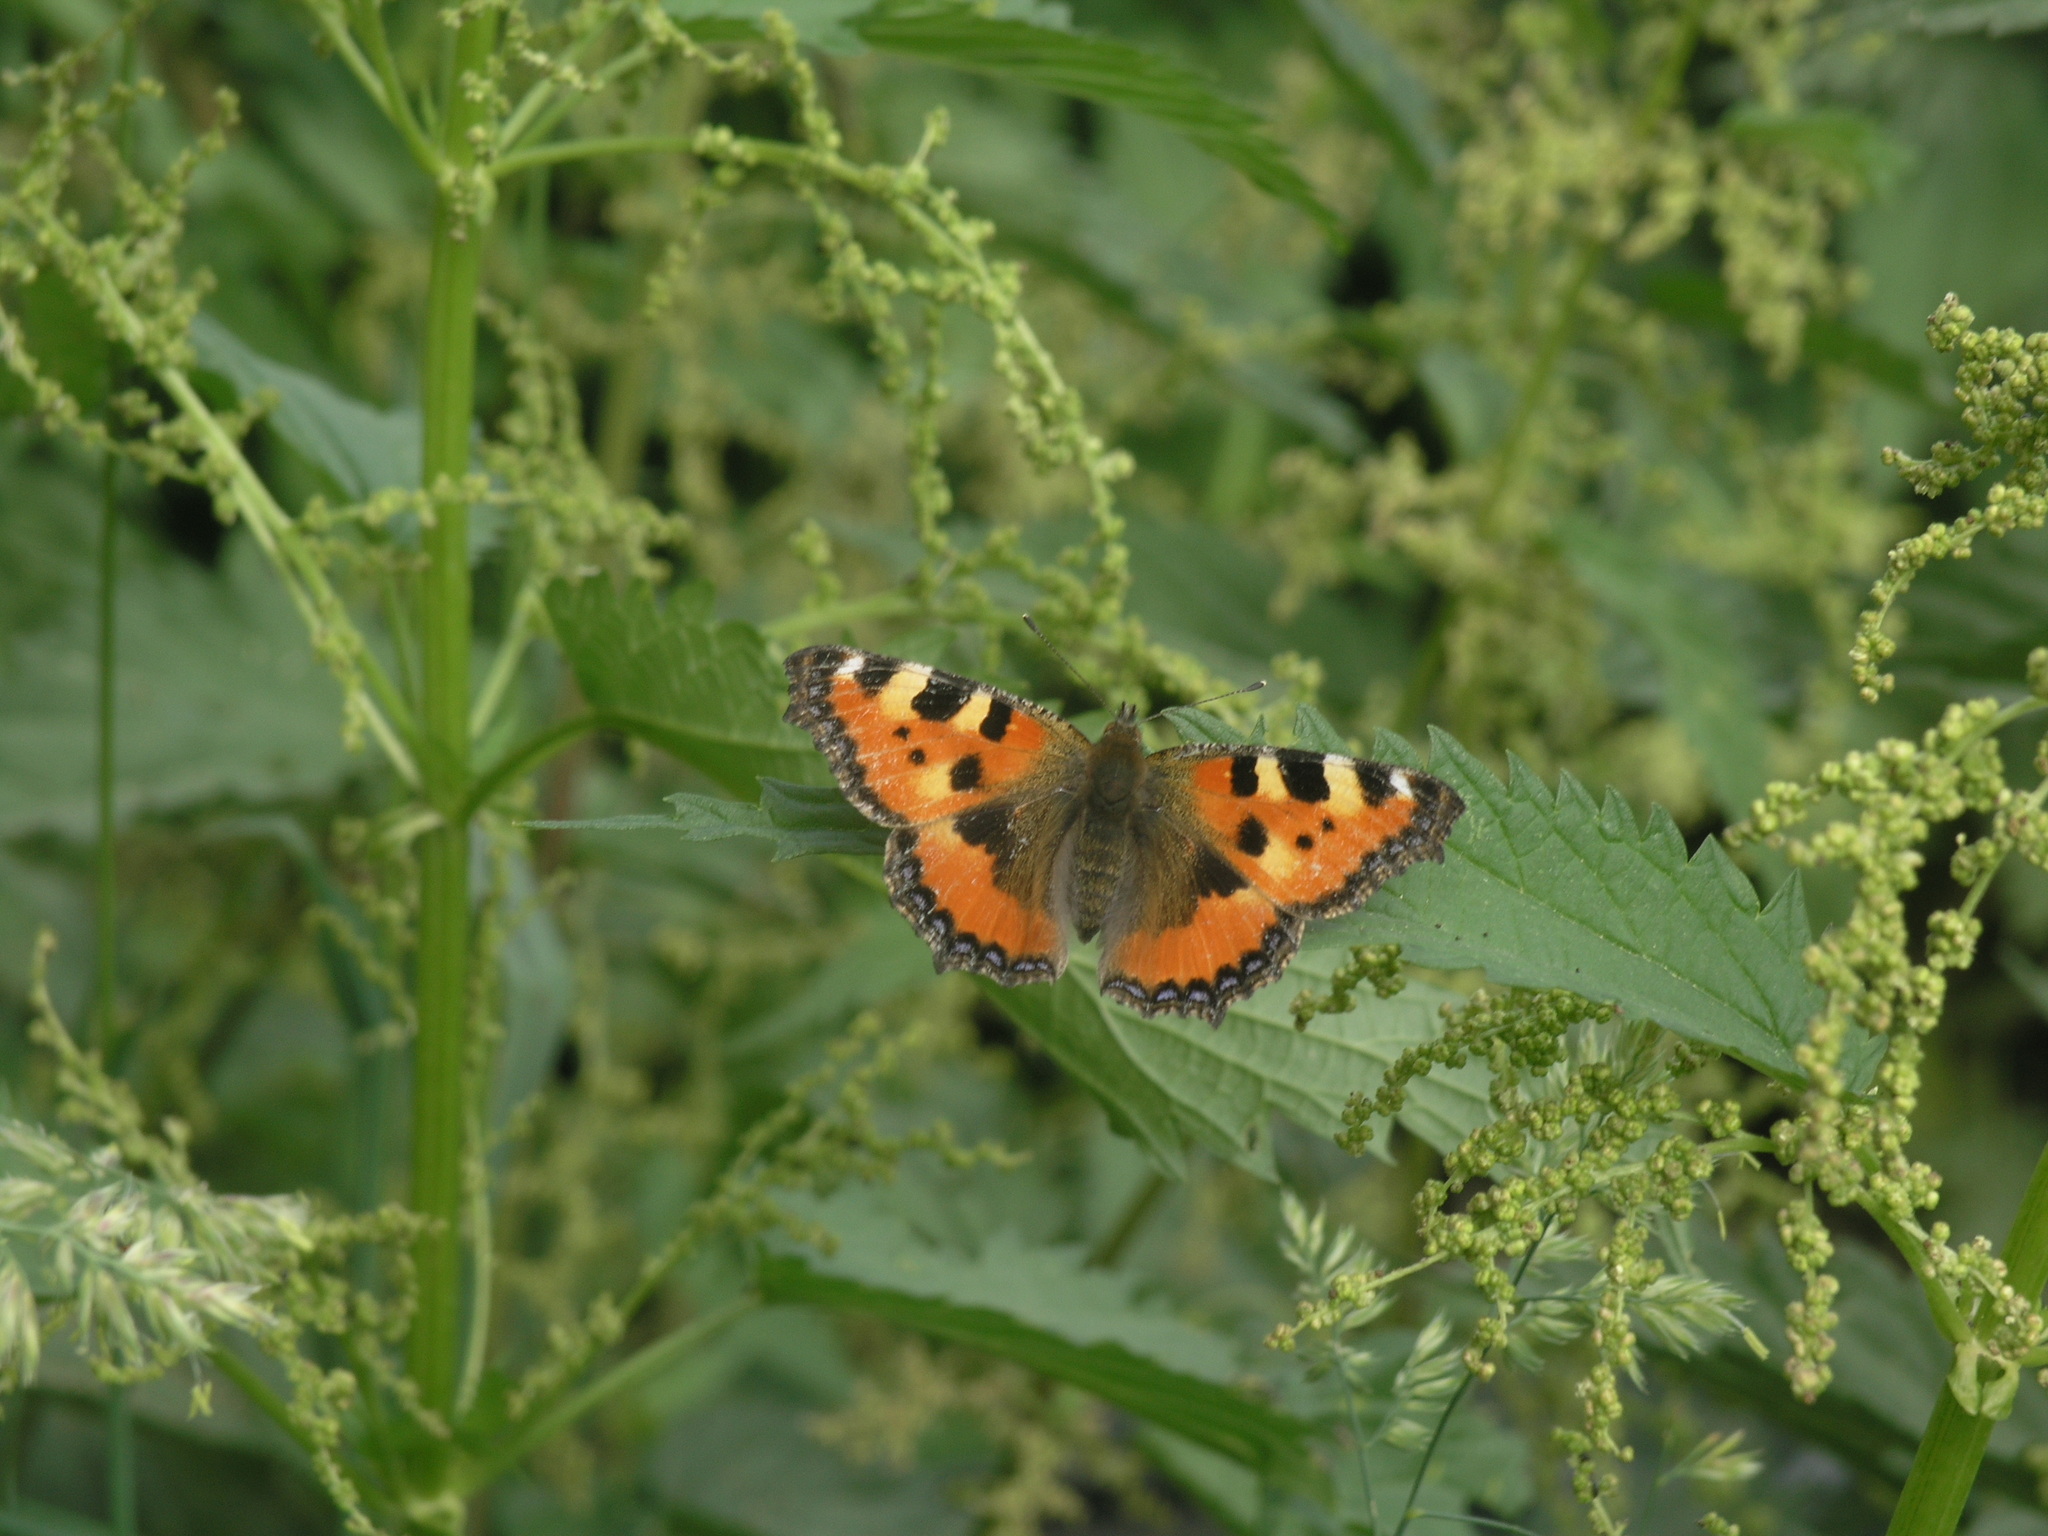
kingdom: Animalia
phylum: Arthropoda
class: Insecta
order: Lepidoptera
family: Nymphalidae
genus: Aglais
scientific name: Aglais urticae
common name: Small tortoiseshell
